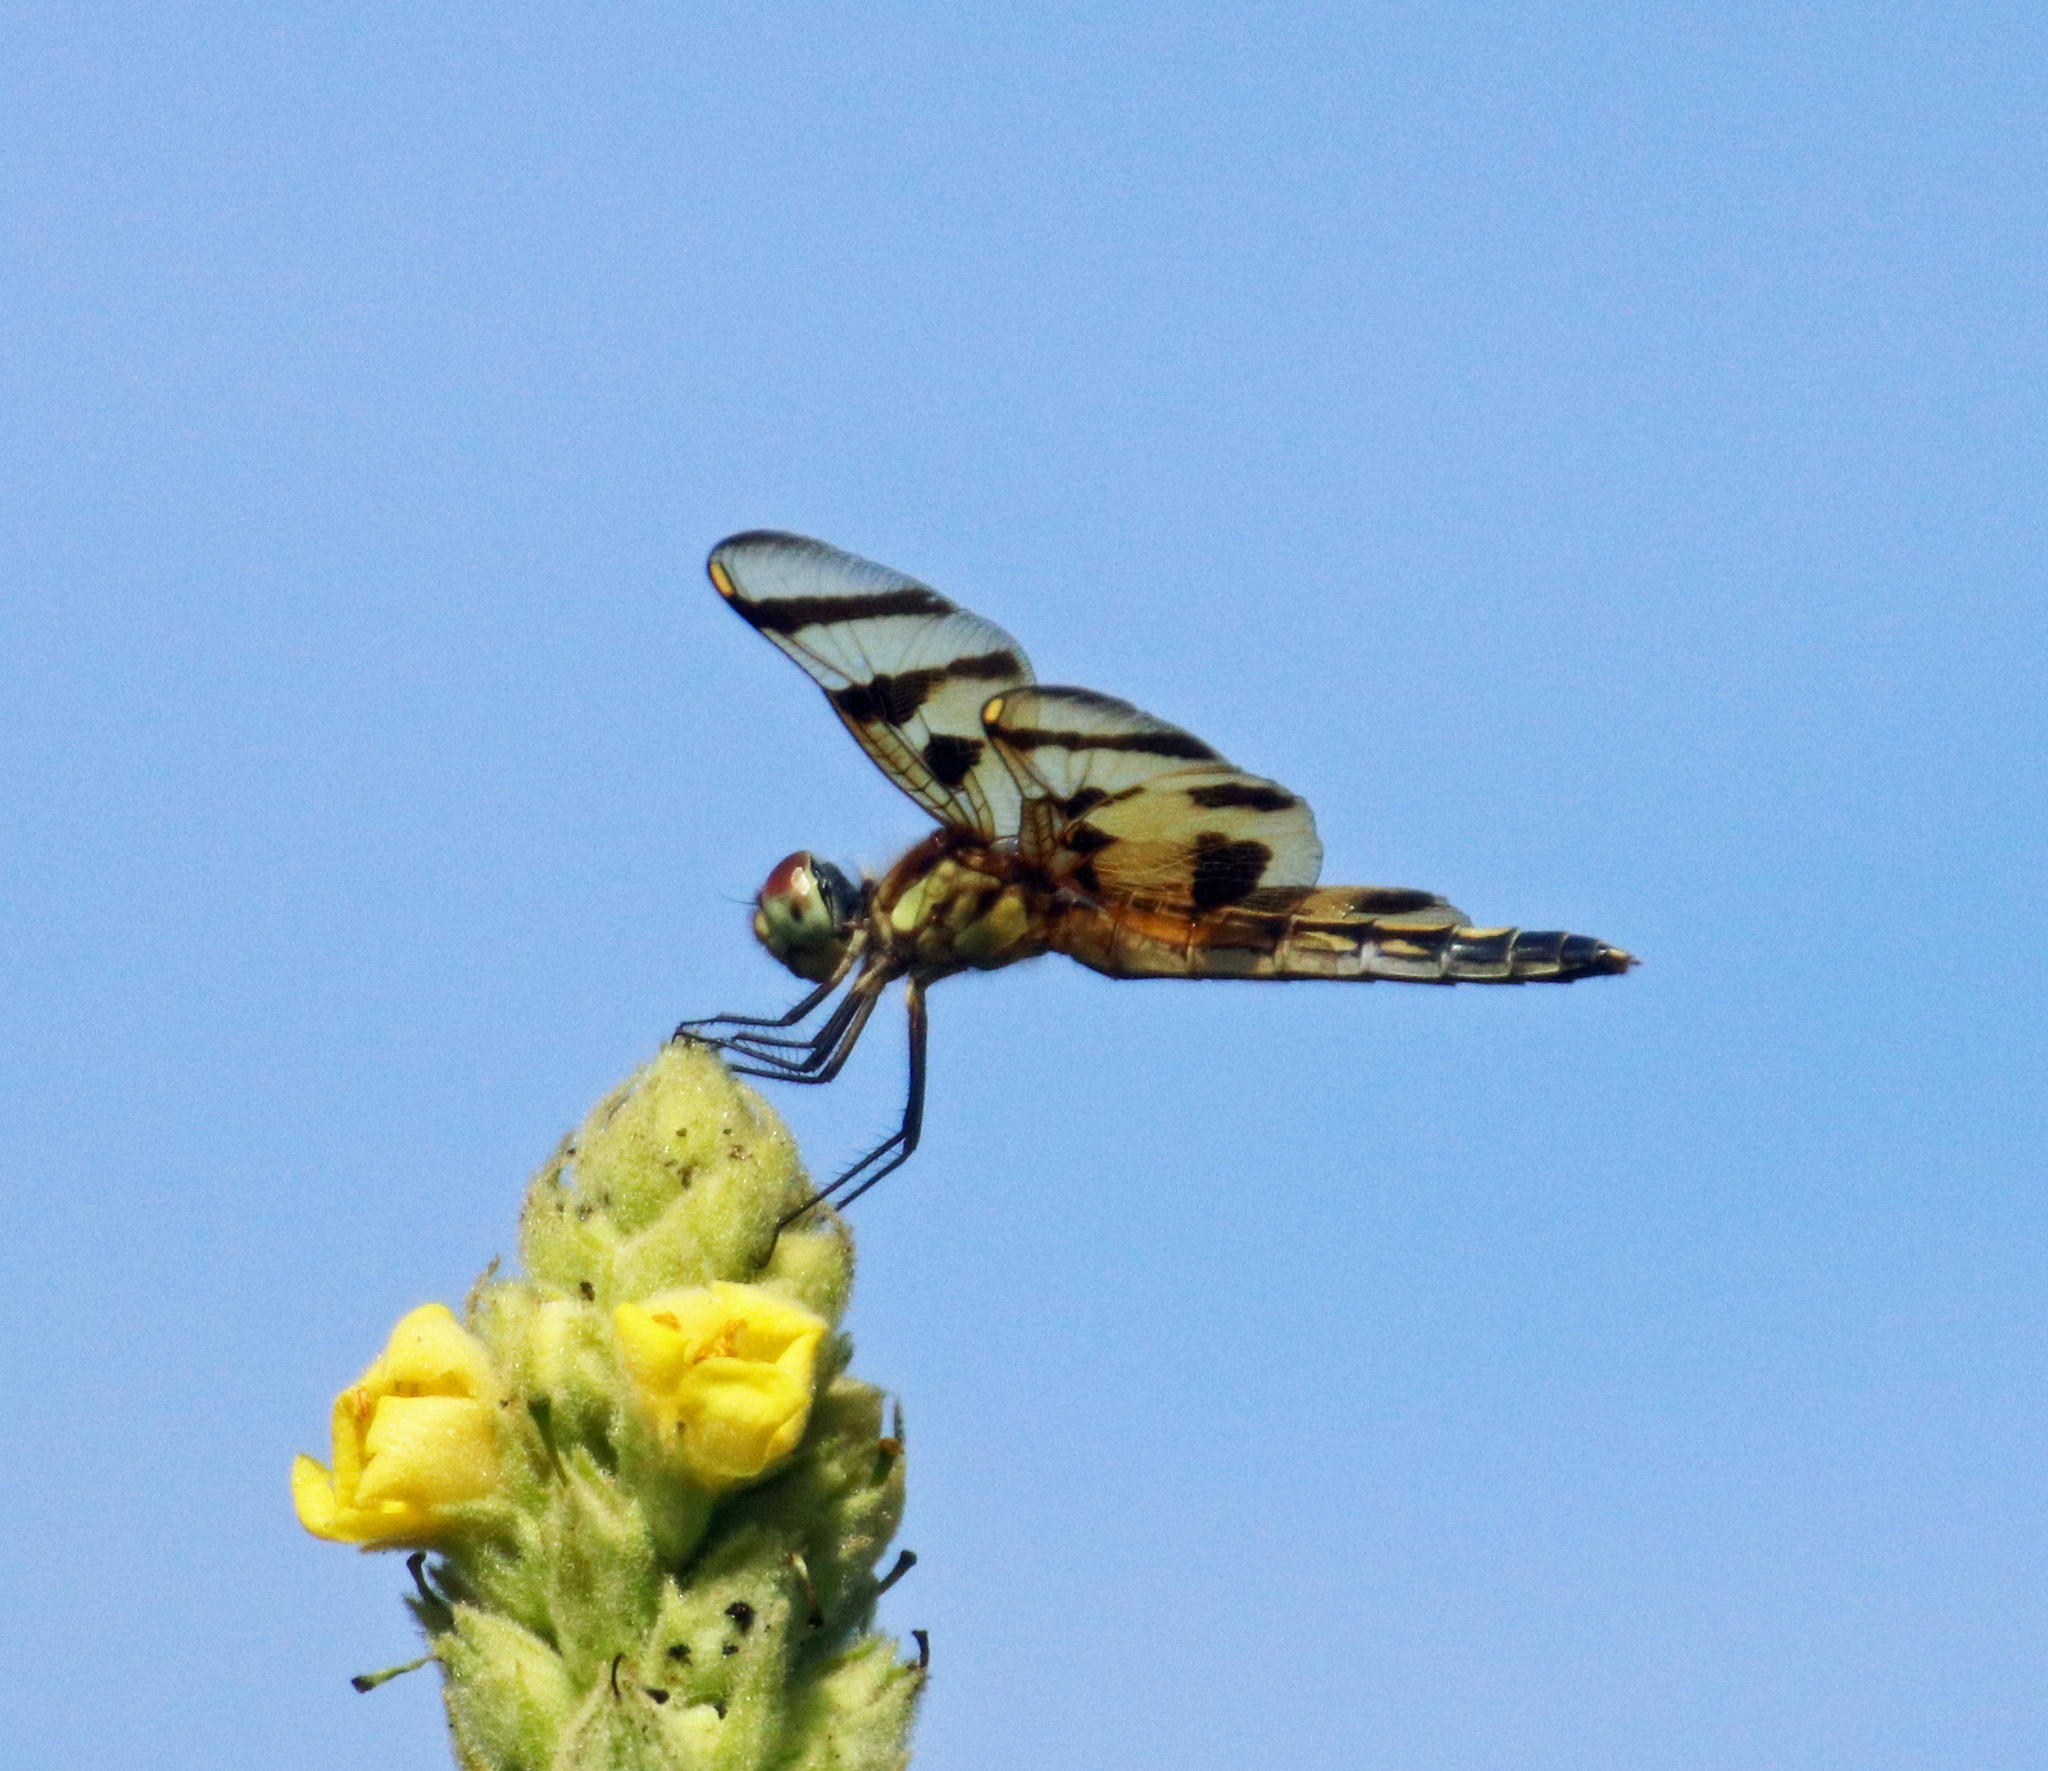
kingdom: Animalia
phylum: Arthropoda
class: Insecta
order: Odonata
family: Libellulidae
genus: Celithemis
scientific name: Celithemis eponina
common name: Halloween pennant
